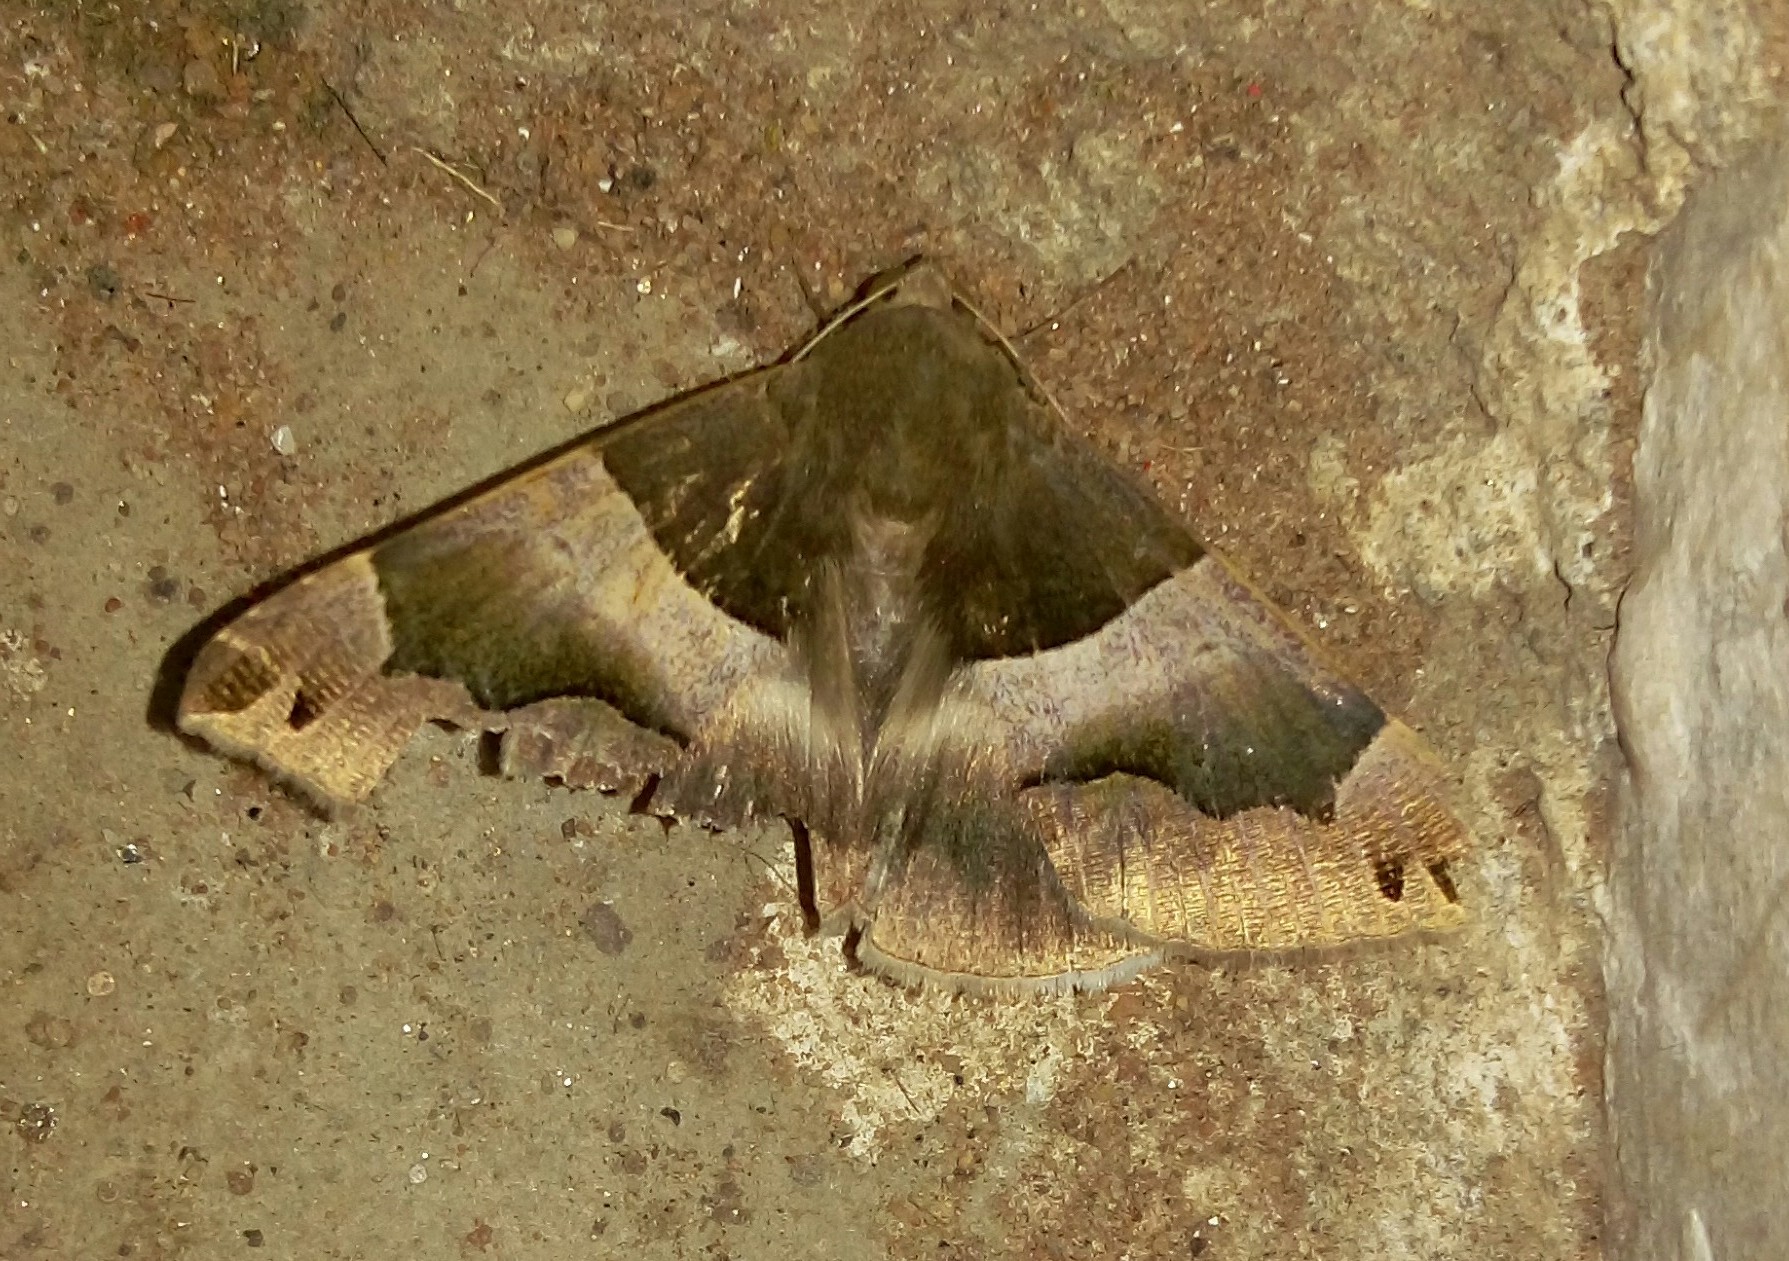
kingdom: Animalia
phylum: Arthropoda
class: Insecta
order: Lepidoptera
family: Erebidae
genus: Dysgonia
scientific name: Dysgonia stuposa
